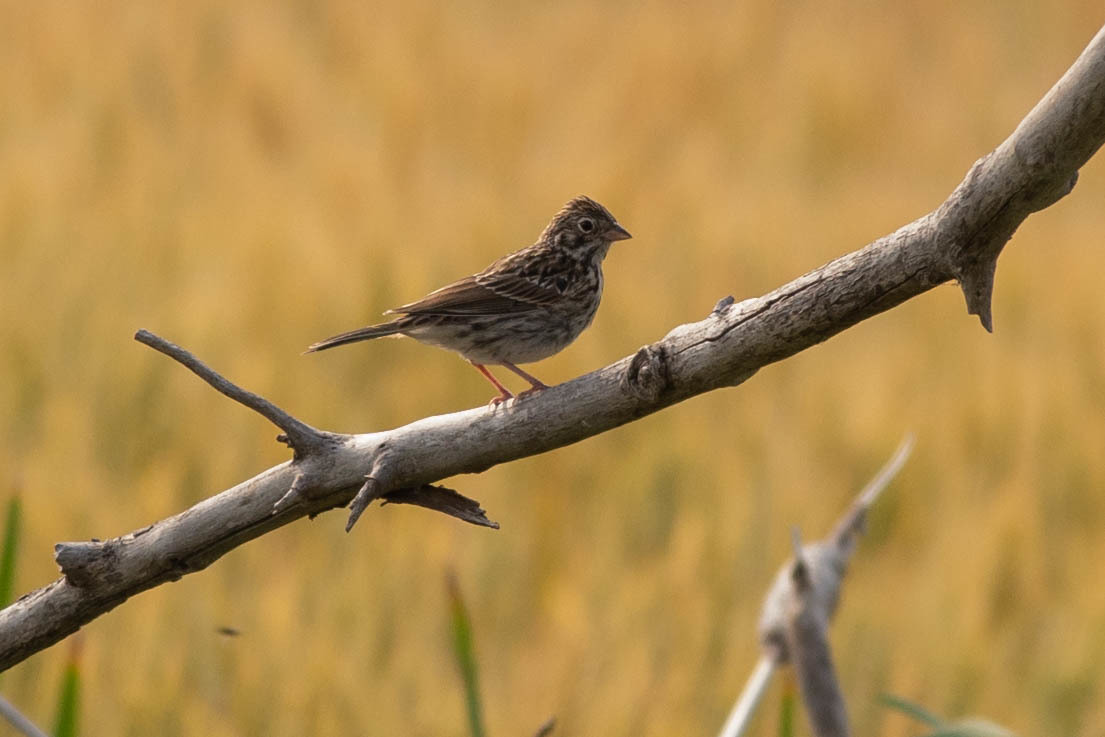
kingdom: Animalia
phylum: Chordata
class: Aves
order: Passeriformes
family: Passerellidae
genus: Pooecetes
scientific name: Pooecetes gramineus
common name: Vesper sparrow
